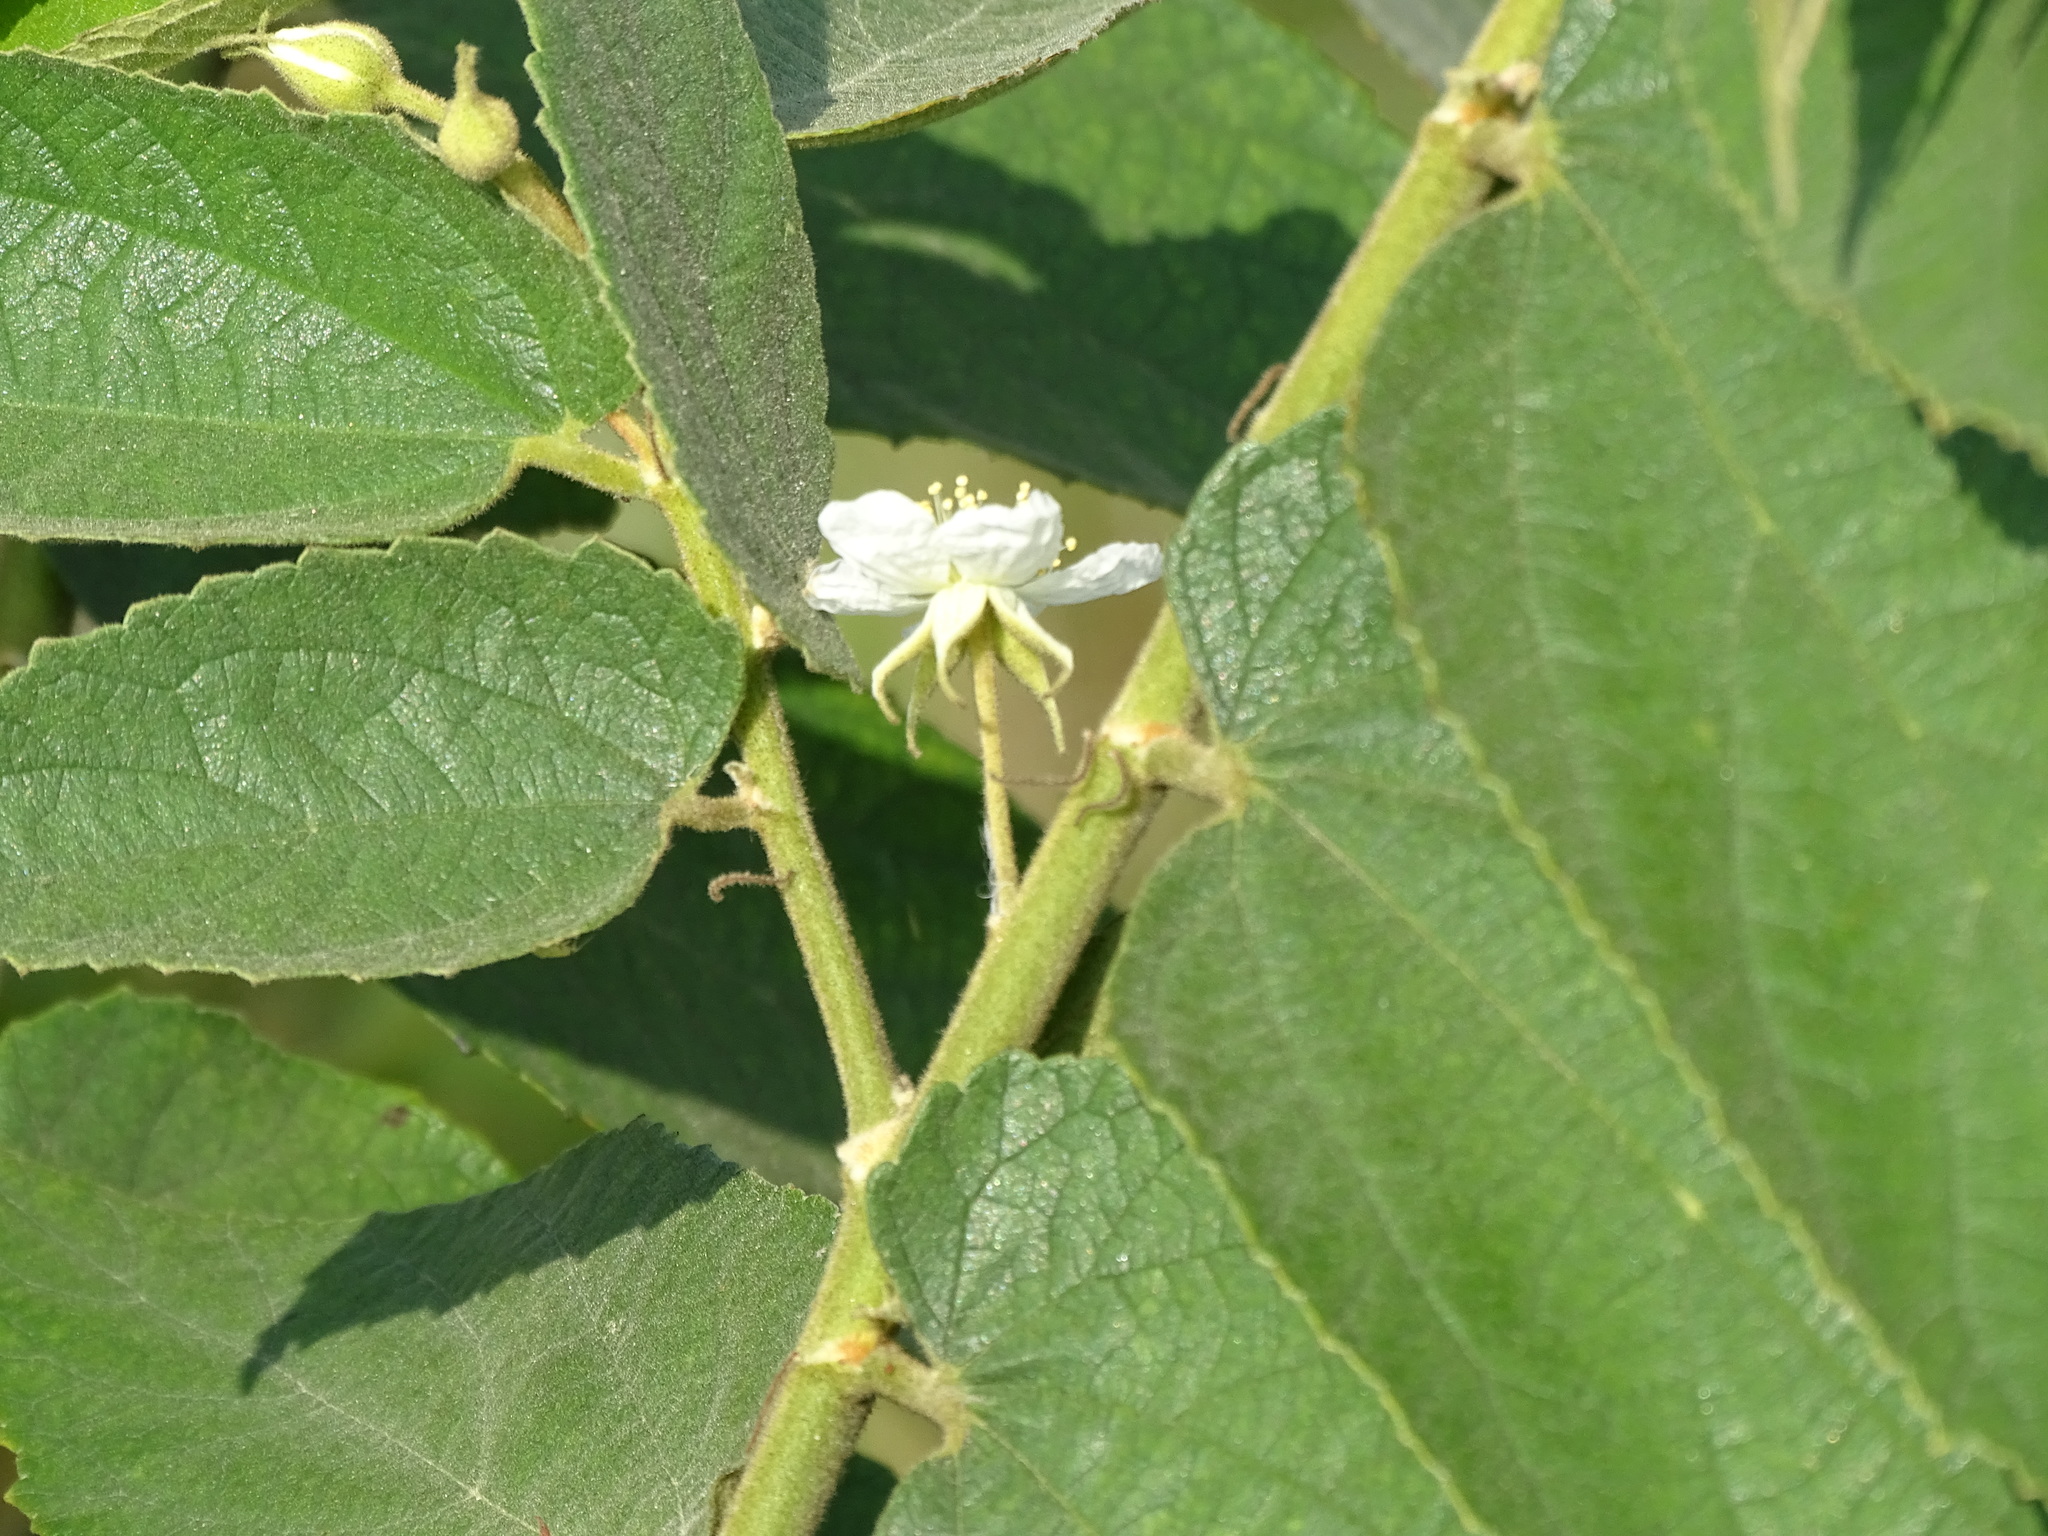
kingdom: Plantae
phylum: Tracheophyta
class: Magnoliopsida
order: Malvales
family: Muntingiaceae
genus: Muntingia
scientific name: Muntingia calabura
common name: Strawberrytree
